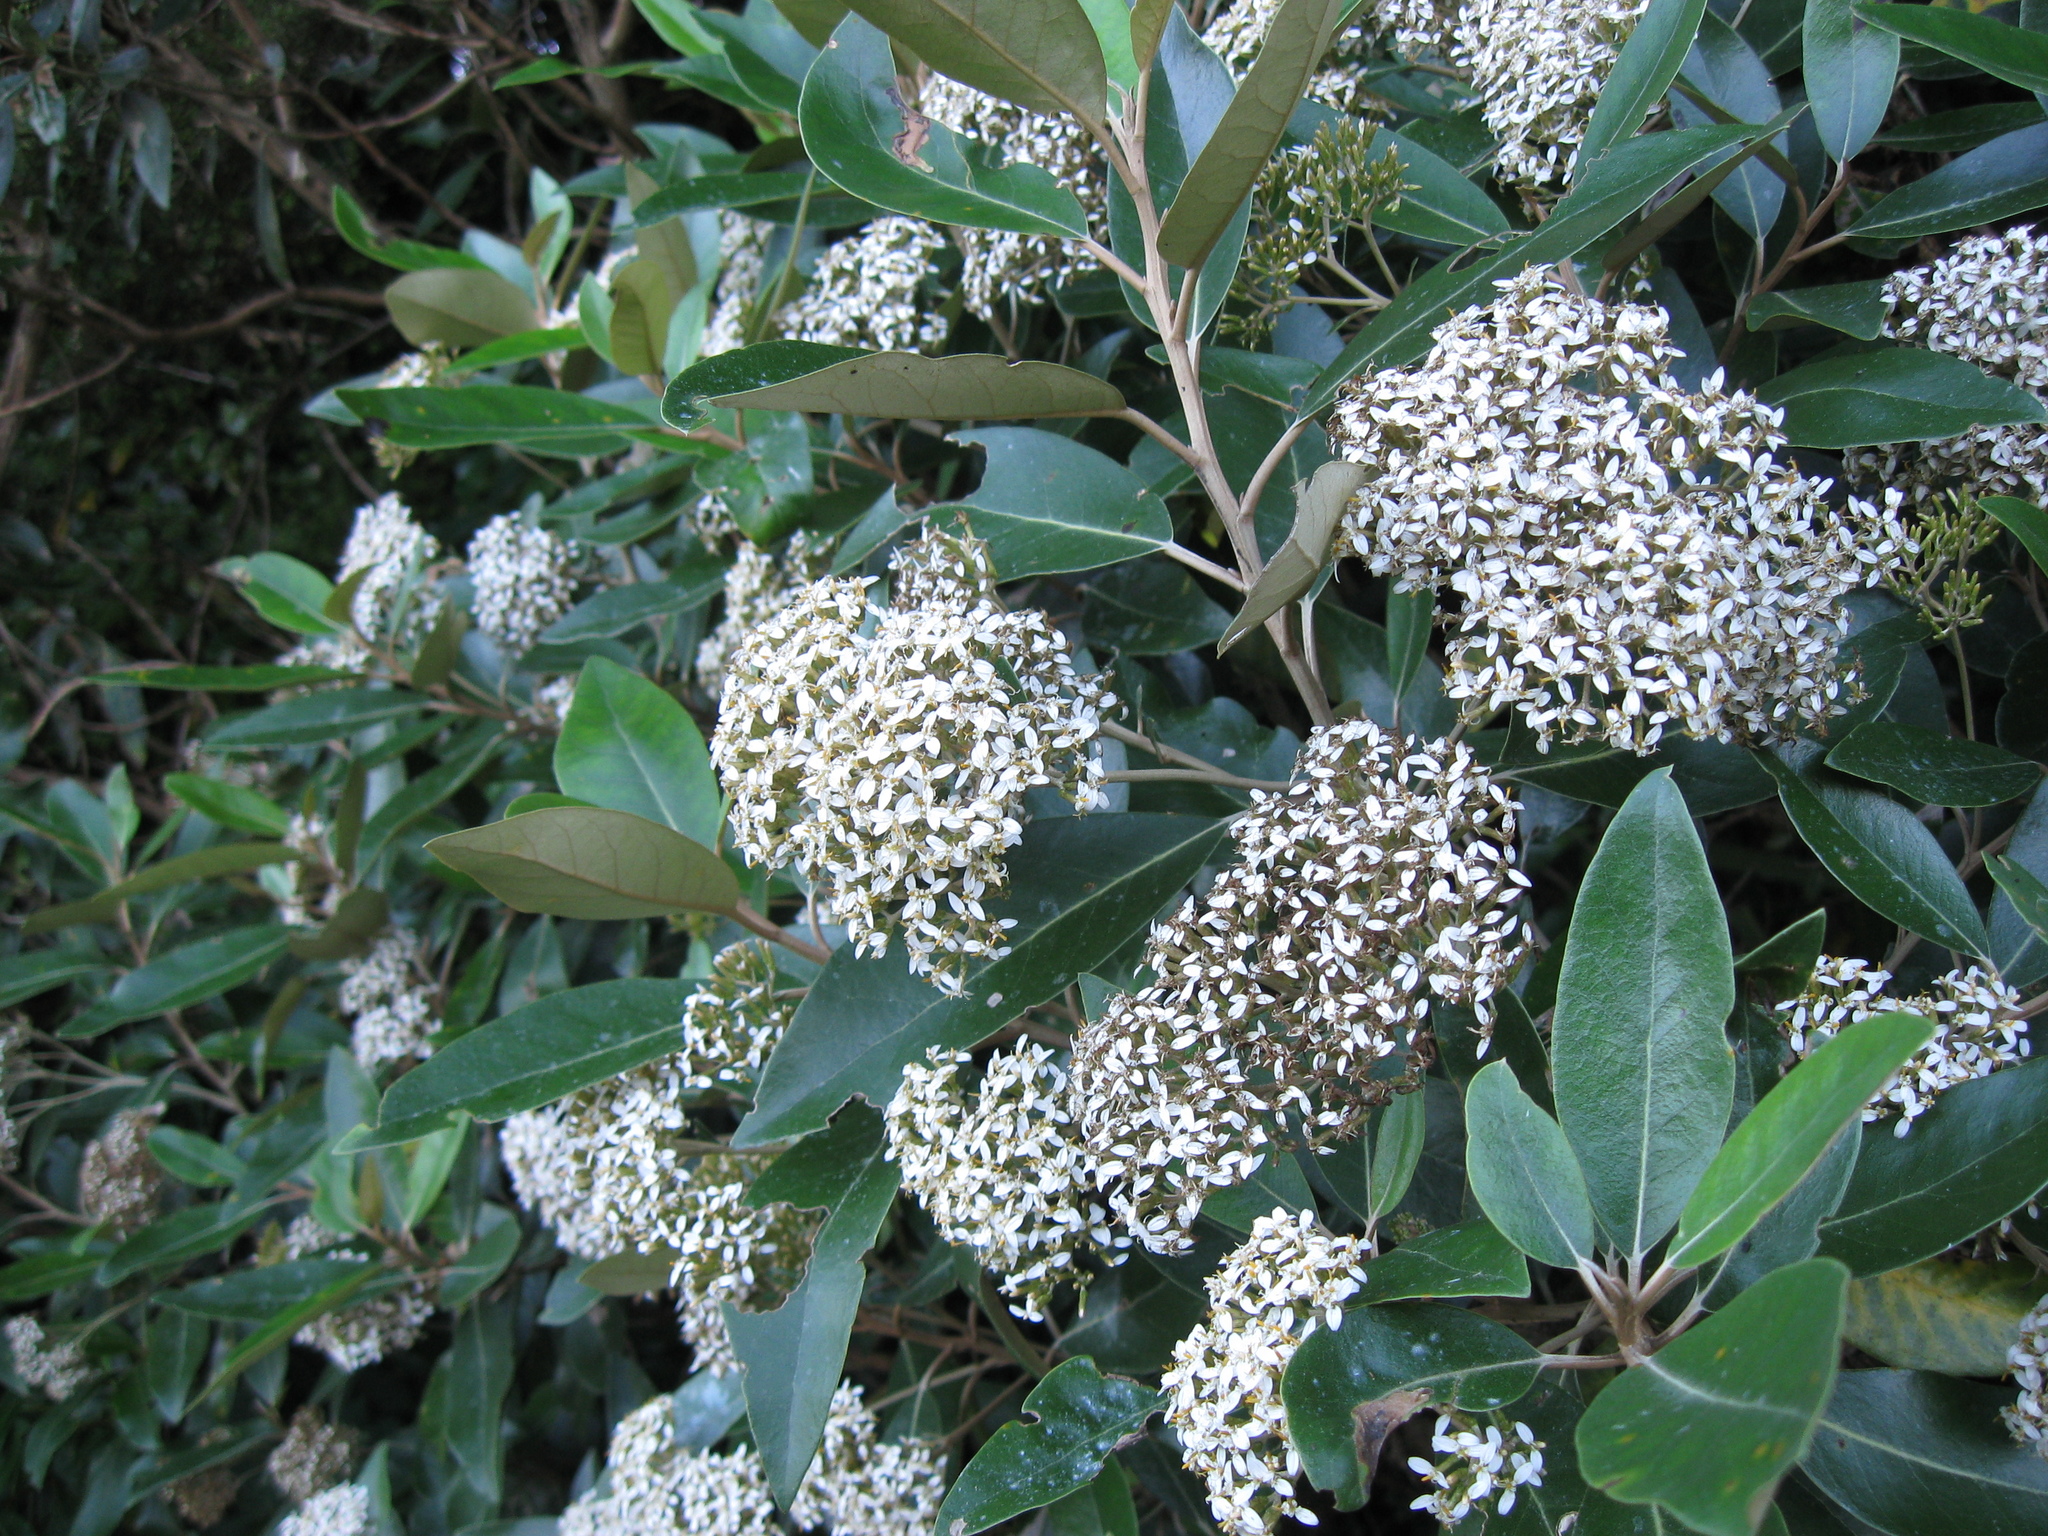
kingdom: Plantae
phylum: Tracheophyta
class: Magnoliopsida
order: Asterales
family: Asteraceae
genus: Olearia
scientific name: Olearia avicenniifolia
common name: Mangrove-leaf daisybush
